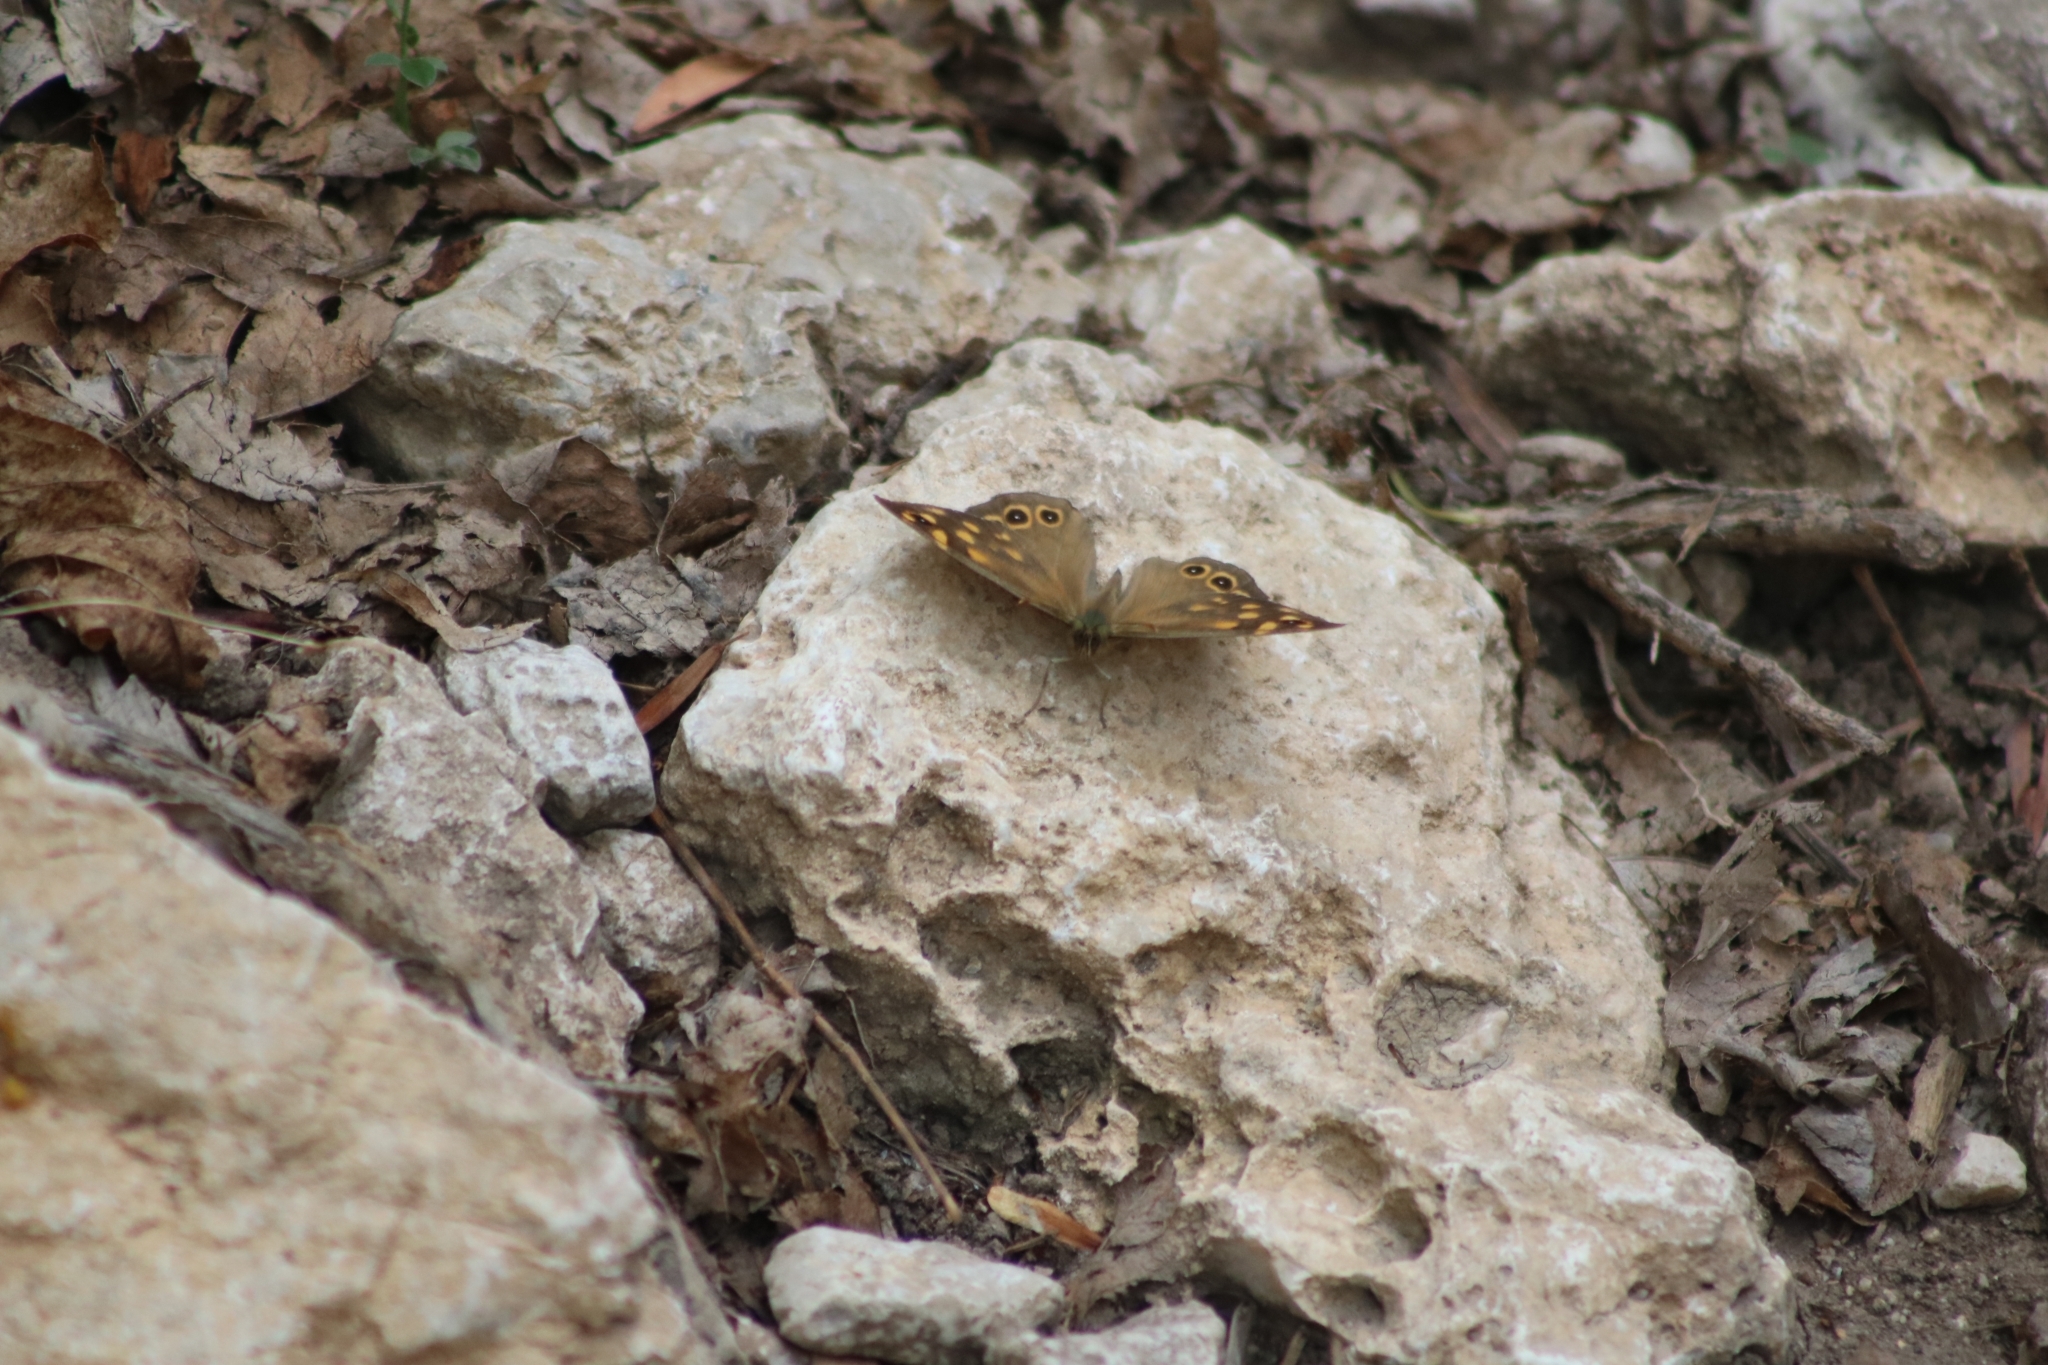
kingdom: Animalia
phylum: Arthropoda
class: Insecta
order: Lepidoptera
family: Nymphalidae
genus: Pararge
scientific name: Pararge aegeria
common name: Speckled wood
